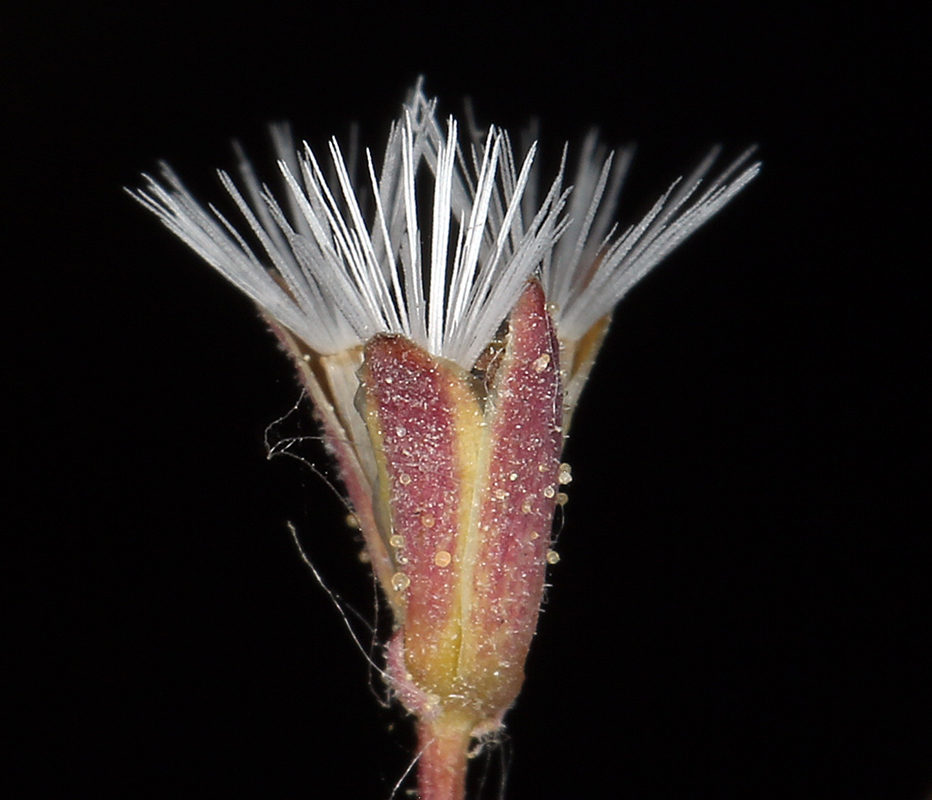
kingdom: Plantae
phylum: Tracheophyta
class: Magnoliopsida
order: Asterales
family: Asteraceae
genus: Lygodesmia
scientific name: Lygodesmia exigua
